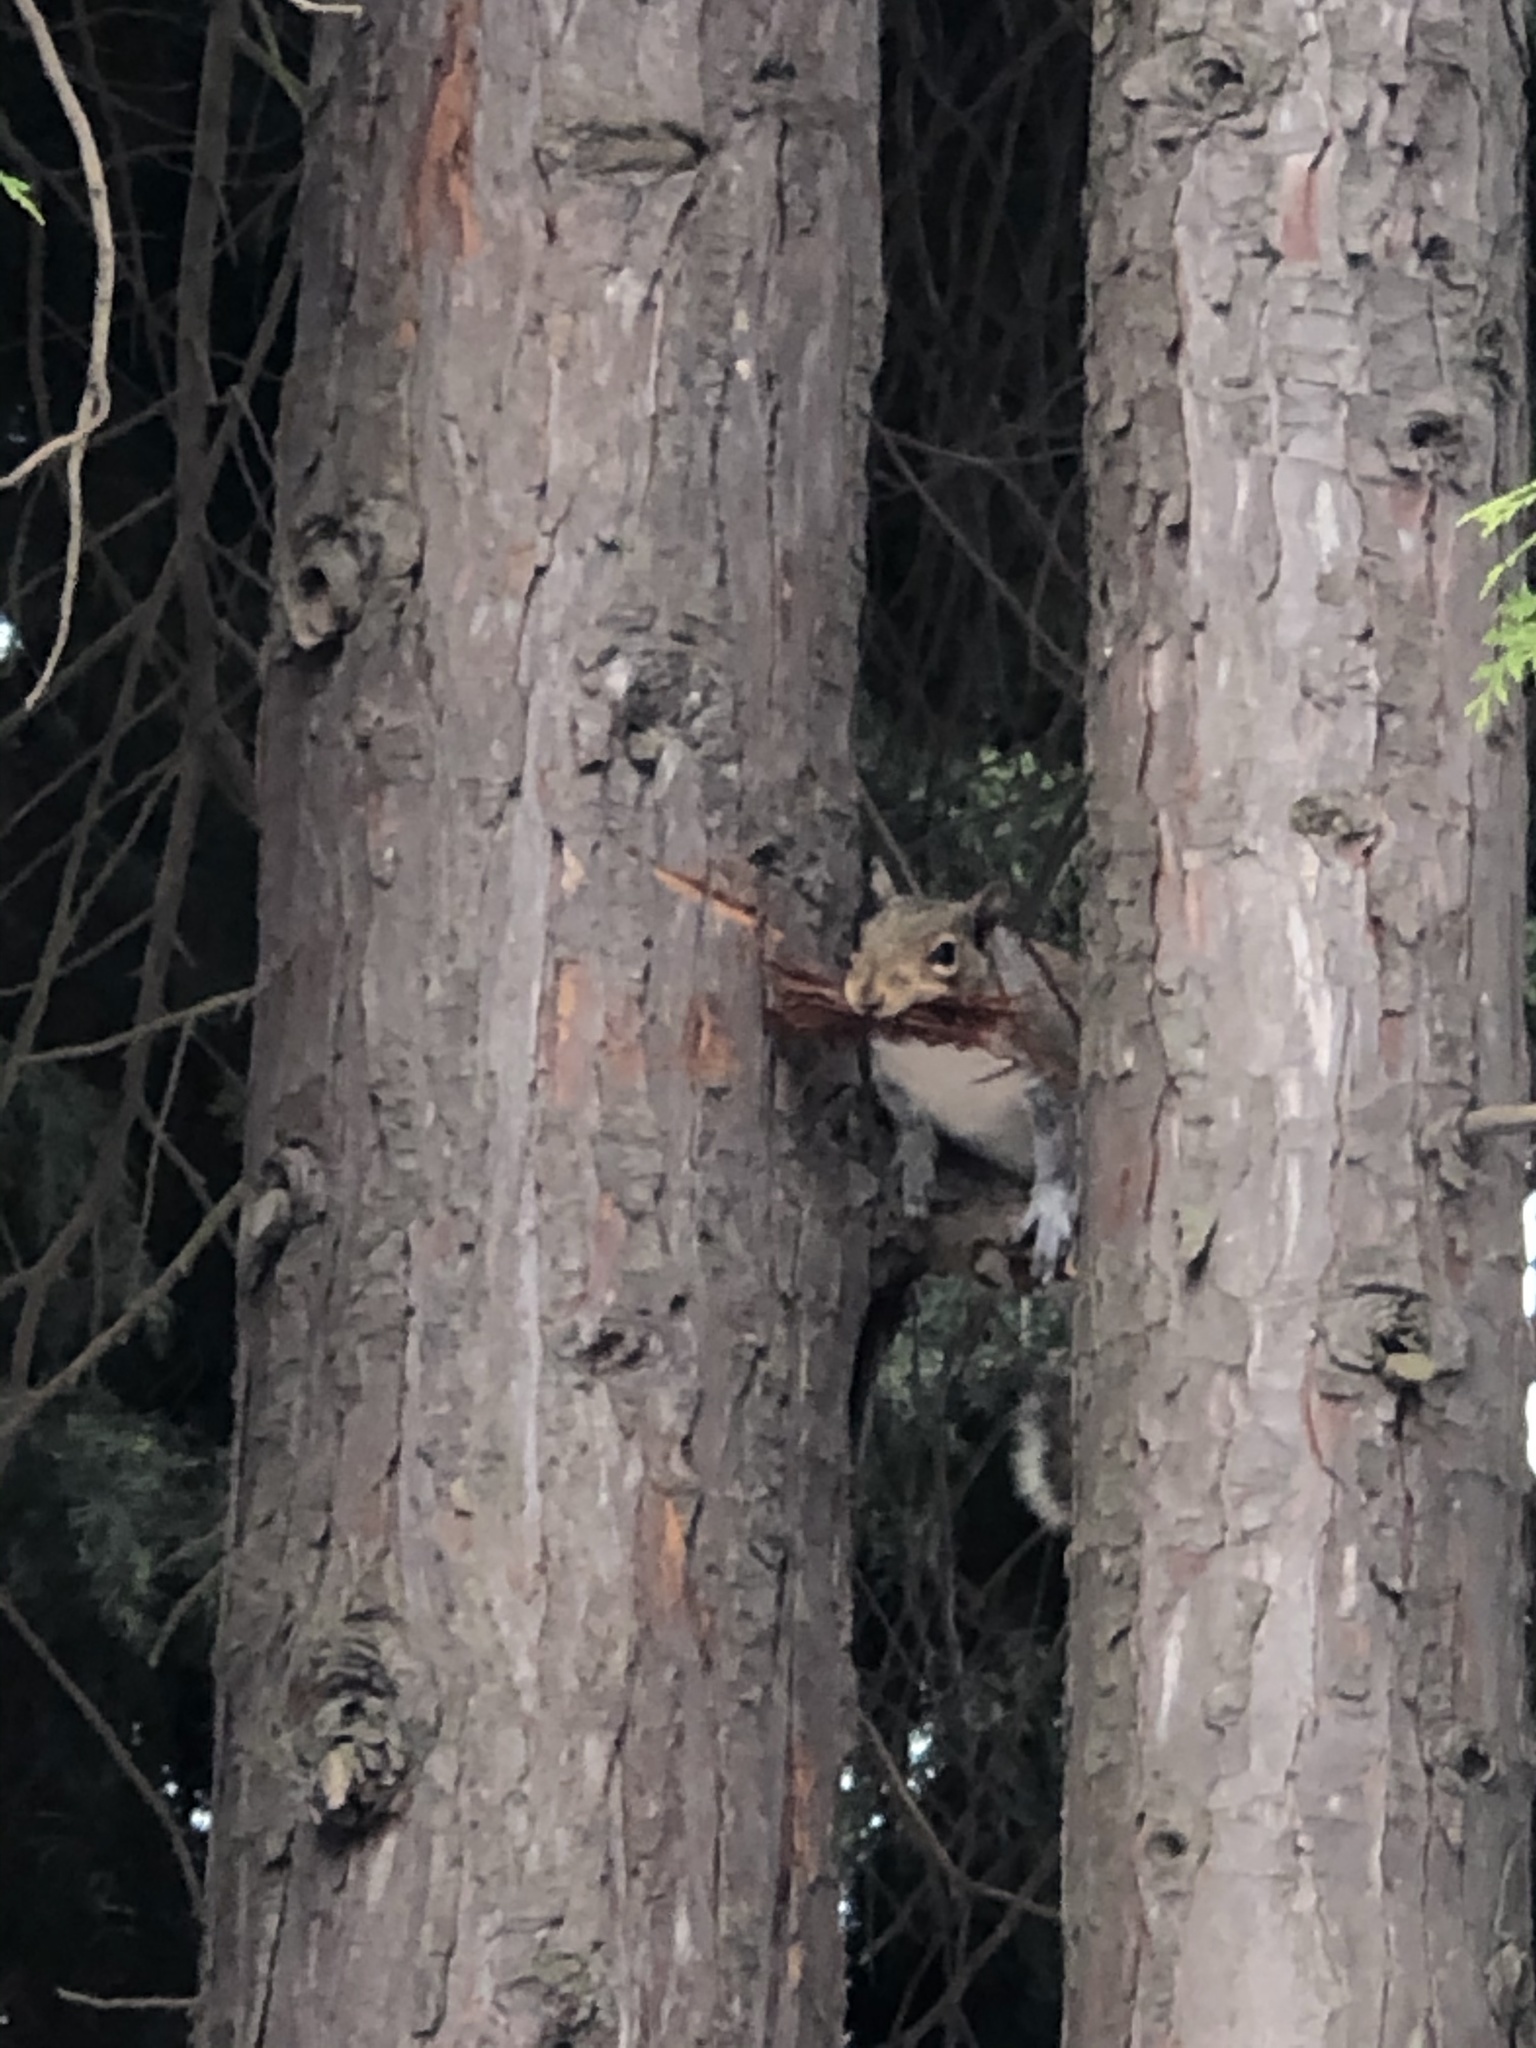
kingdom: Animalia
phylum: Chordata
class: Mammalia
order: Rodentia
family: Sciuridae
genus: Sciurus
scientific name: Sciurus carolinensis
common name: Eastern gray squirrel
